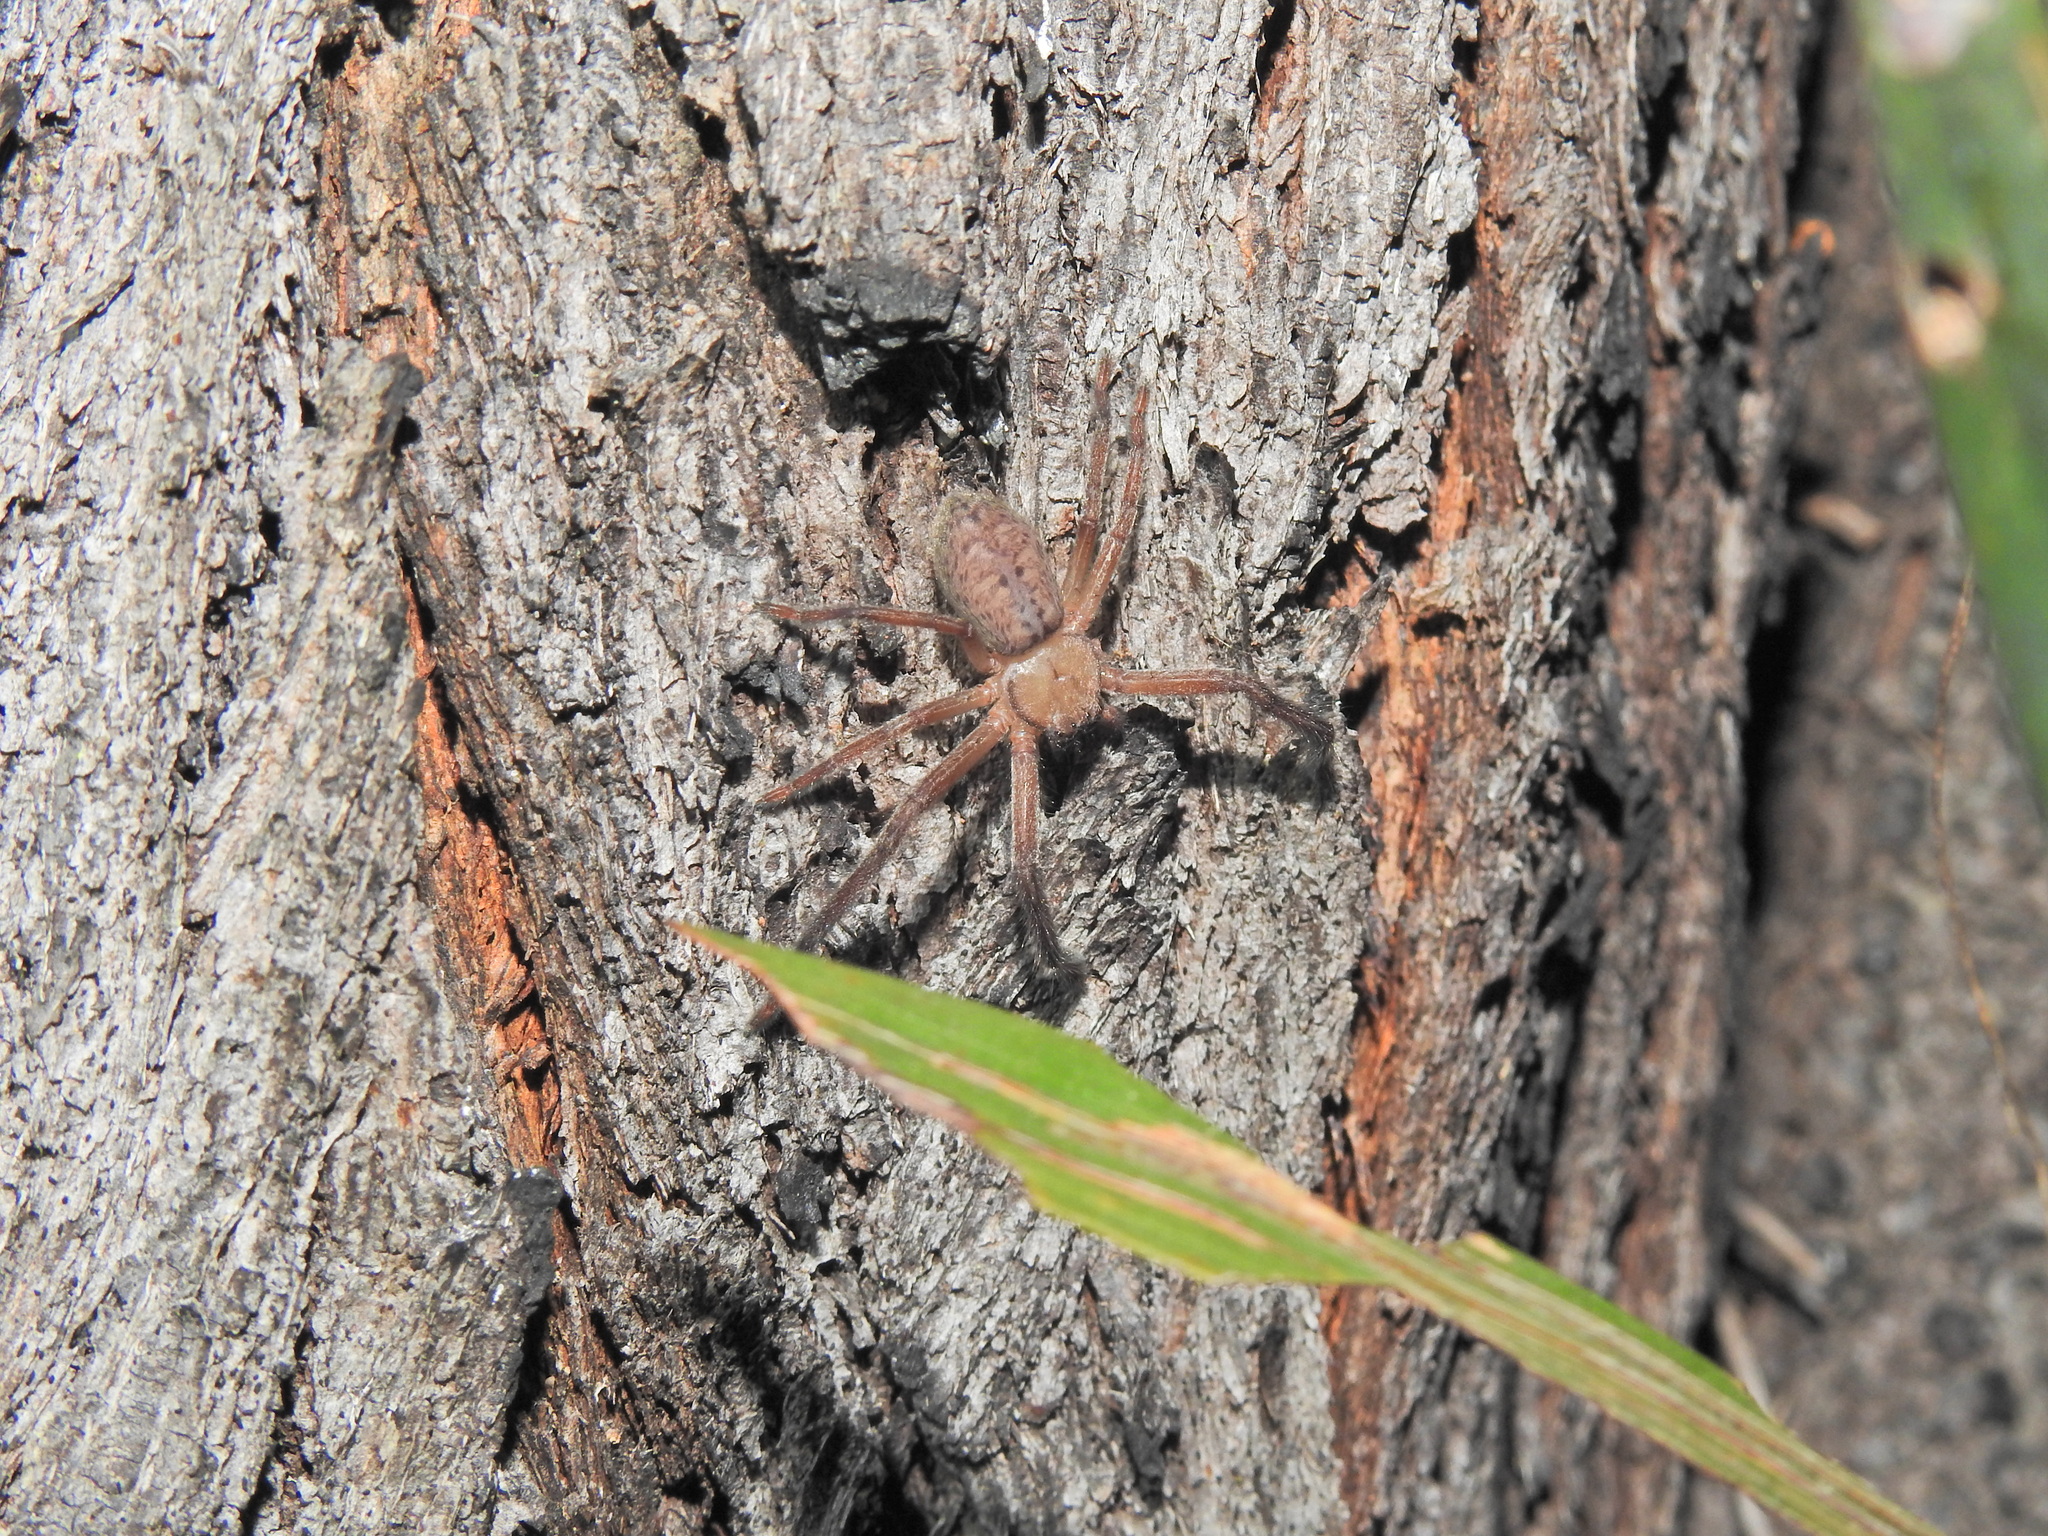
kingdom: Animalia
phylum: Arthropoda
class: Arachnida
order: Araneae
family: Sparassidae
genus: Delena
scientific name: Delena cancerides
